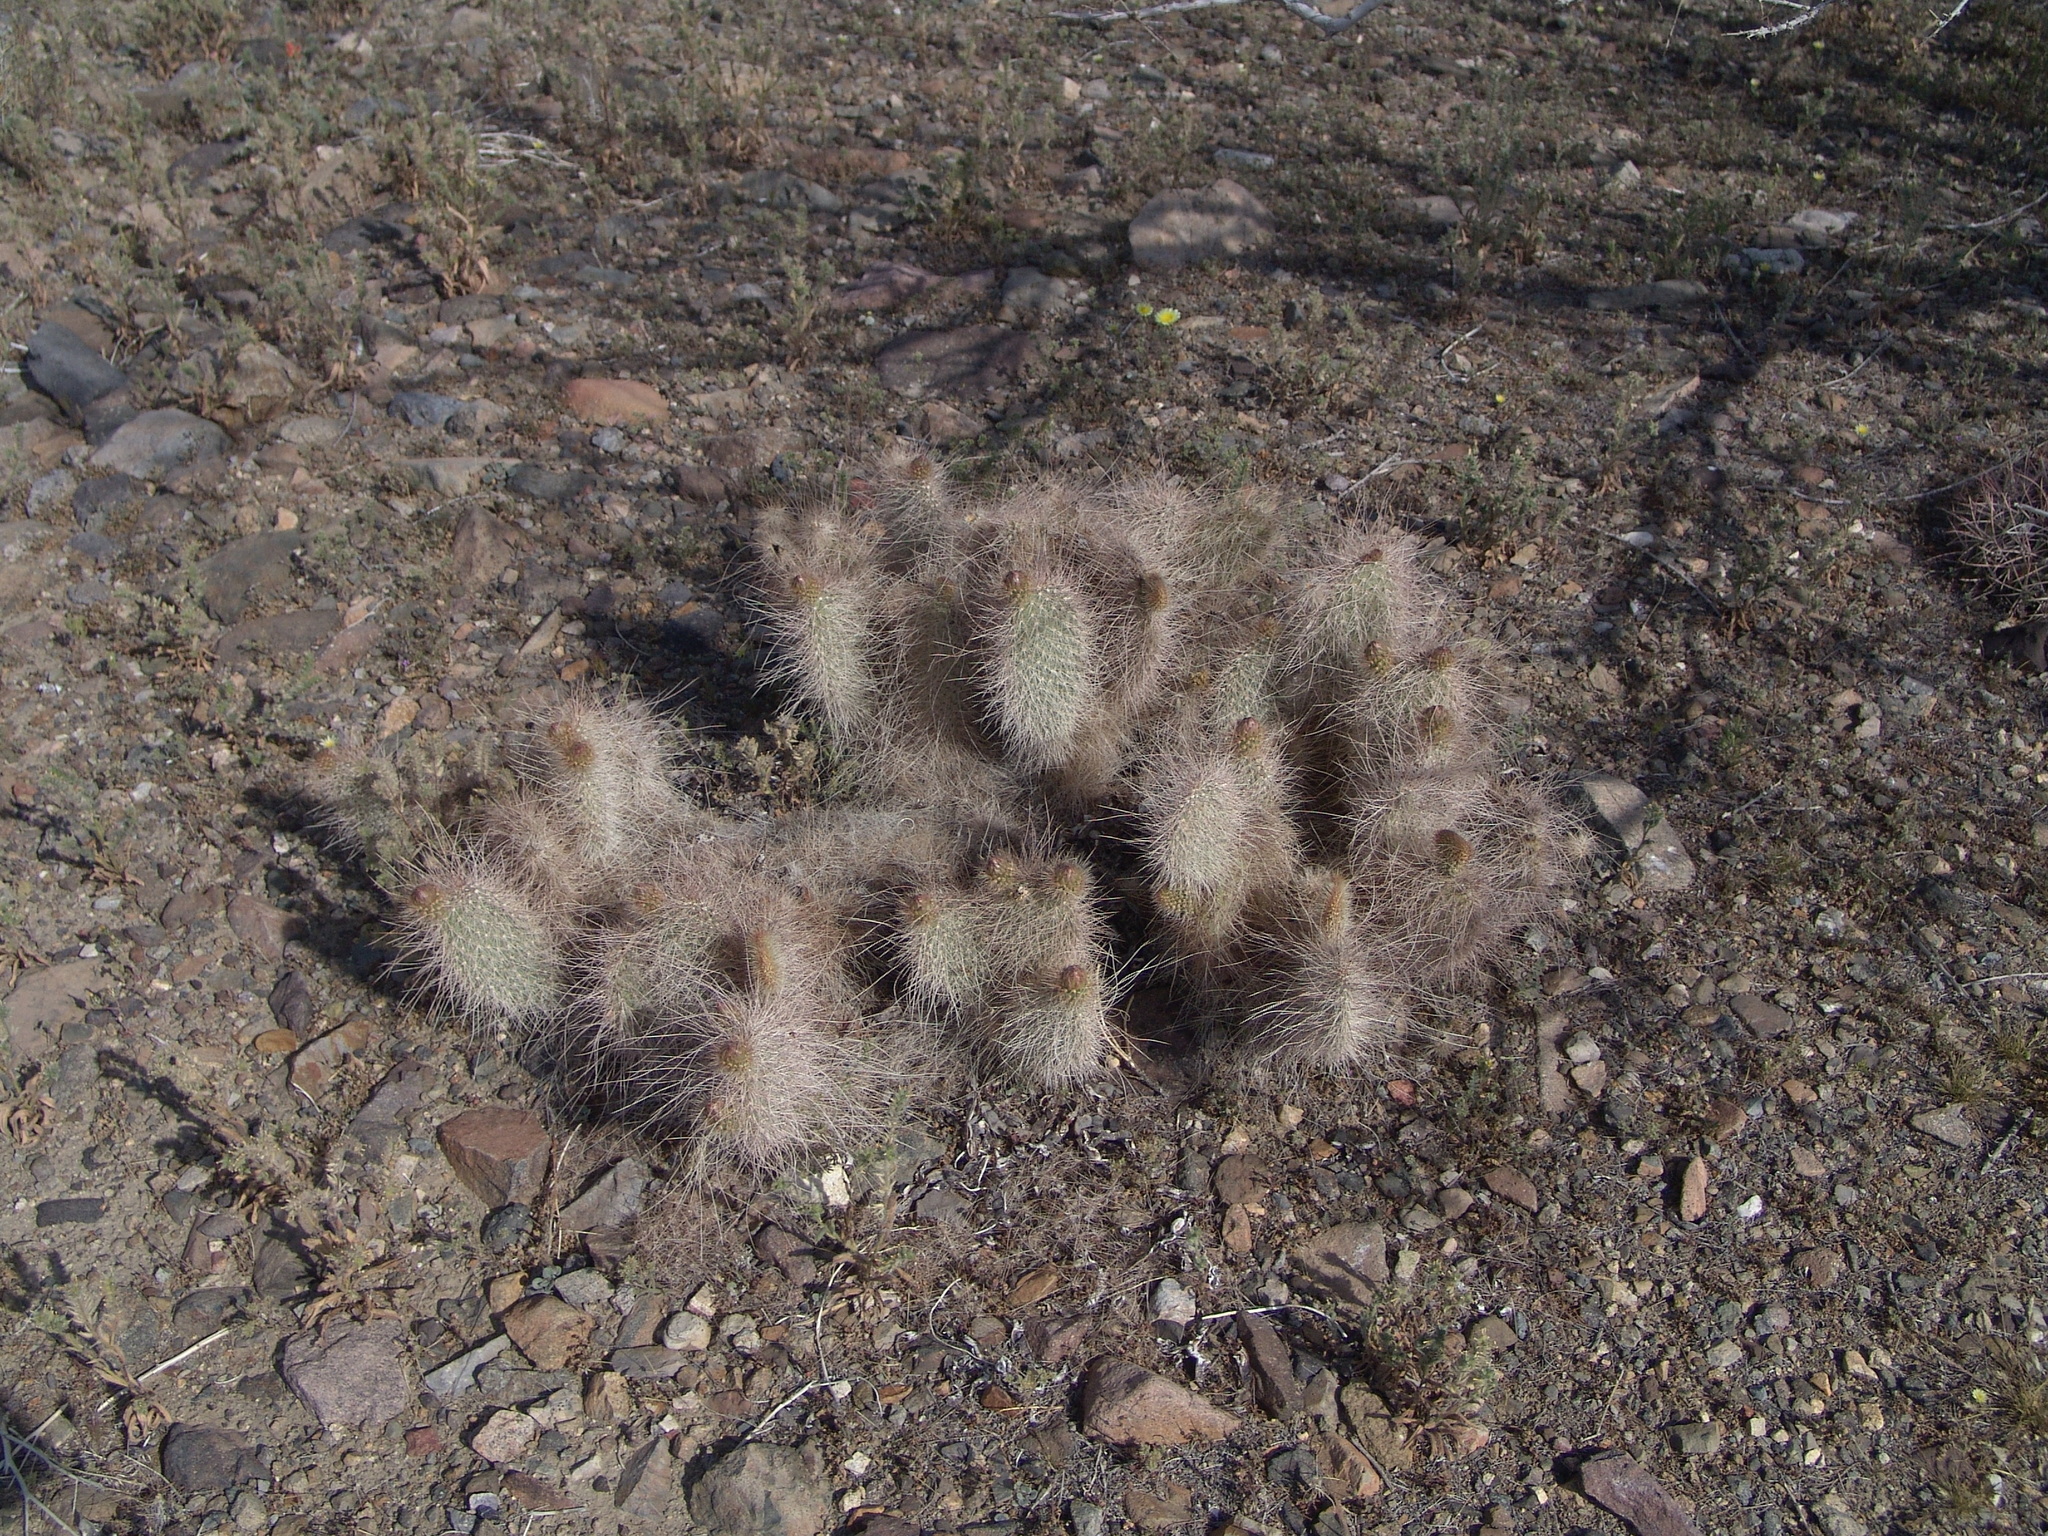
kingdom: Plantae
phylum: Tracheophyta
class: Magnoliopsida
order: Caryophyllales
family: Cactaceae
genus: Opuntia
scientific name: Opuntia polyacantha
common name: Plains prickly-pear
